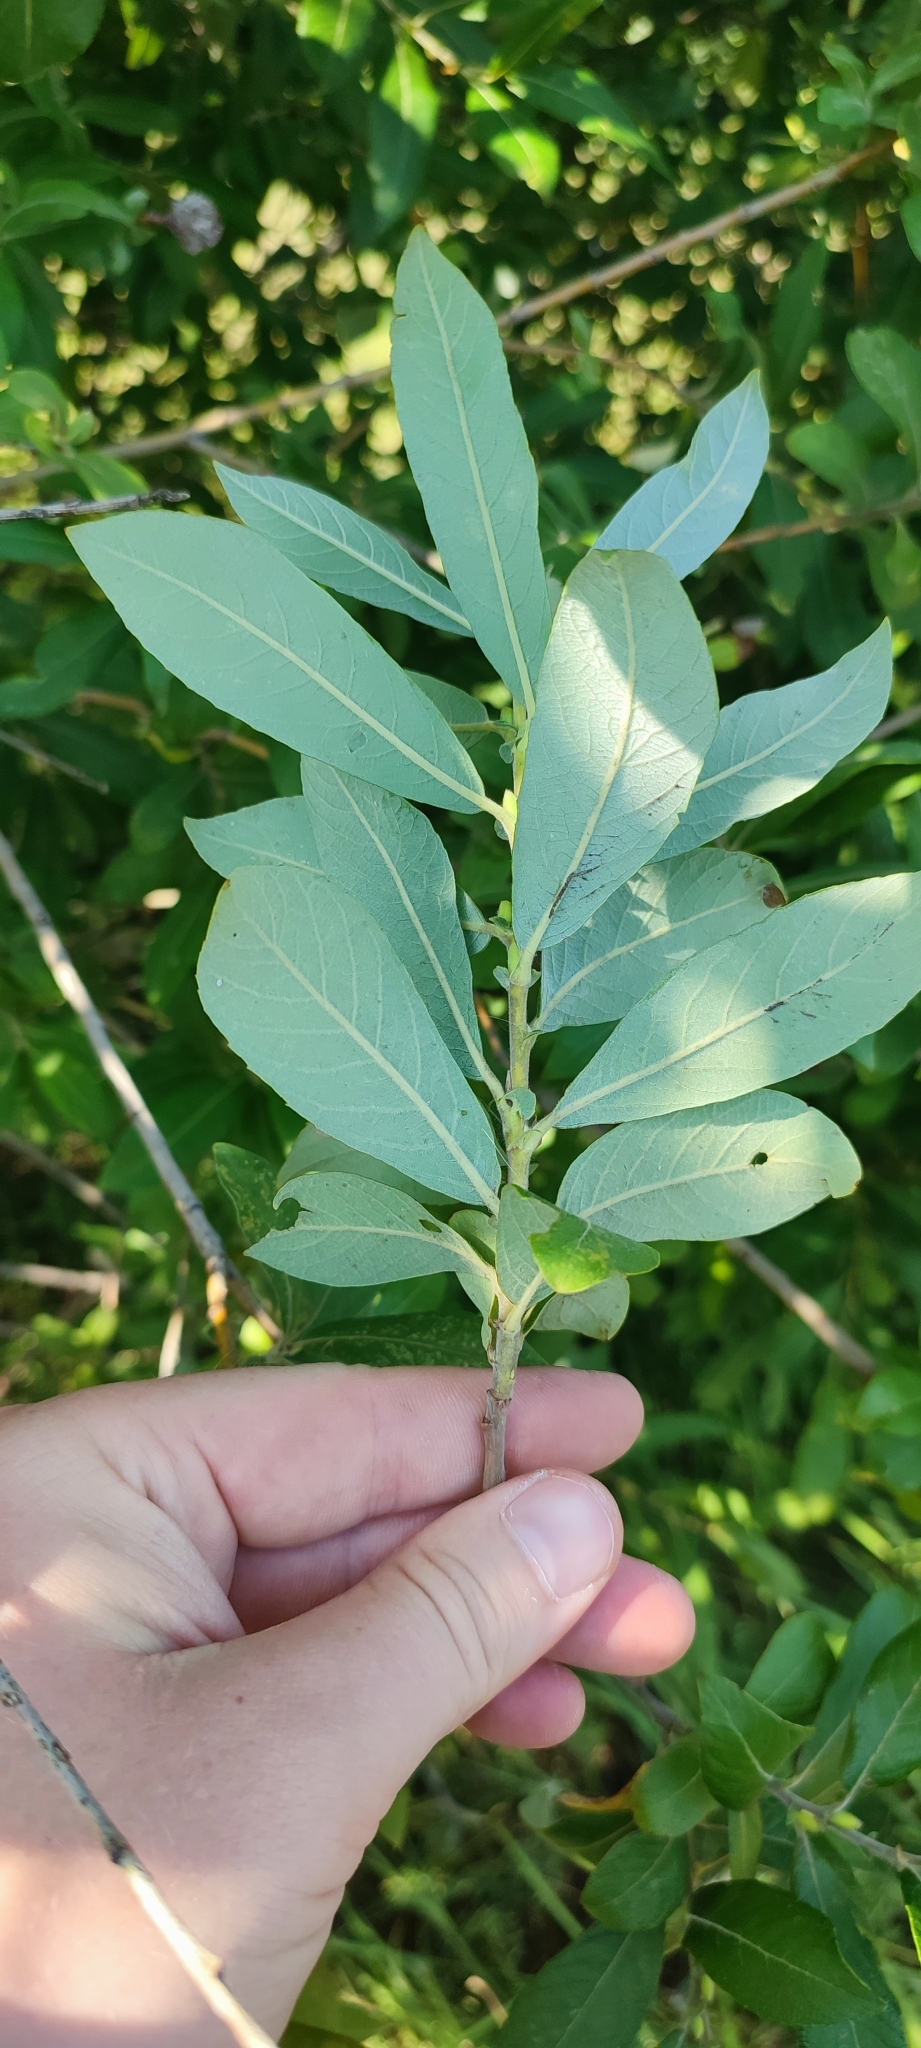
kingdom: Plantae
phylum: Tracheophyta
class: Magnoliopsida
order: Malpighiales
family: Salicaceae
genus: Salix
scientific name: Salix cinerea
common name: Common sallow
